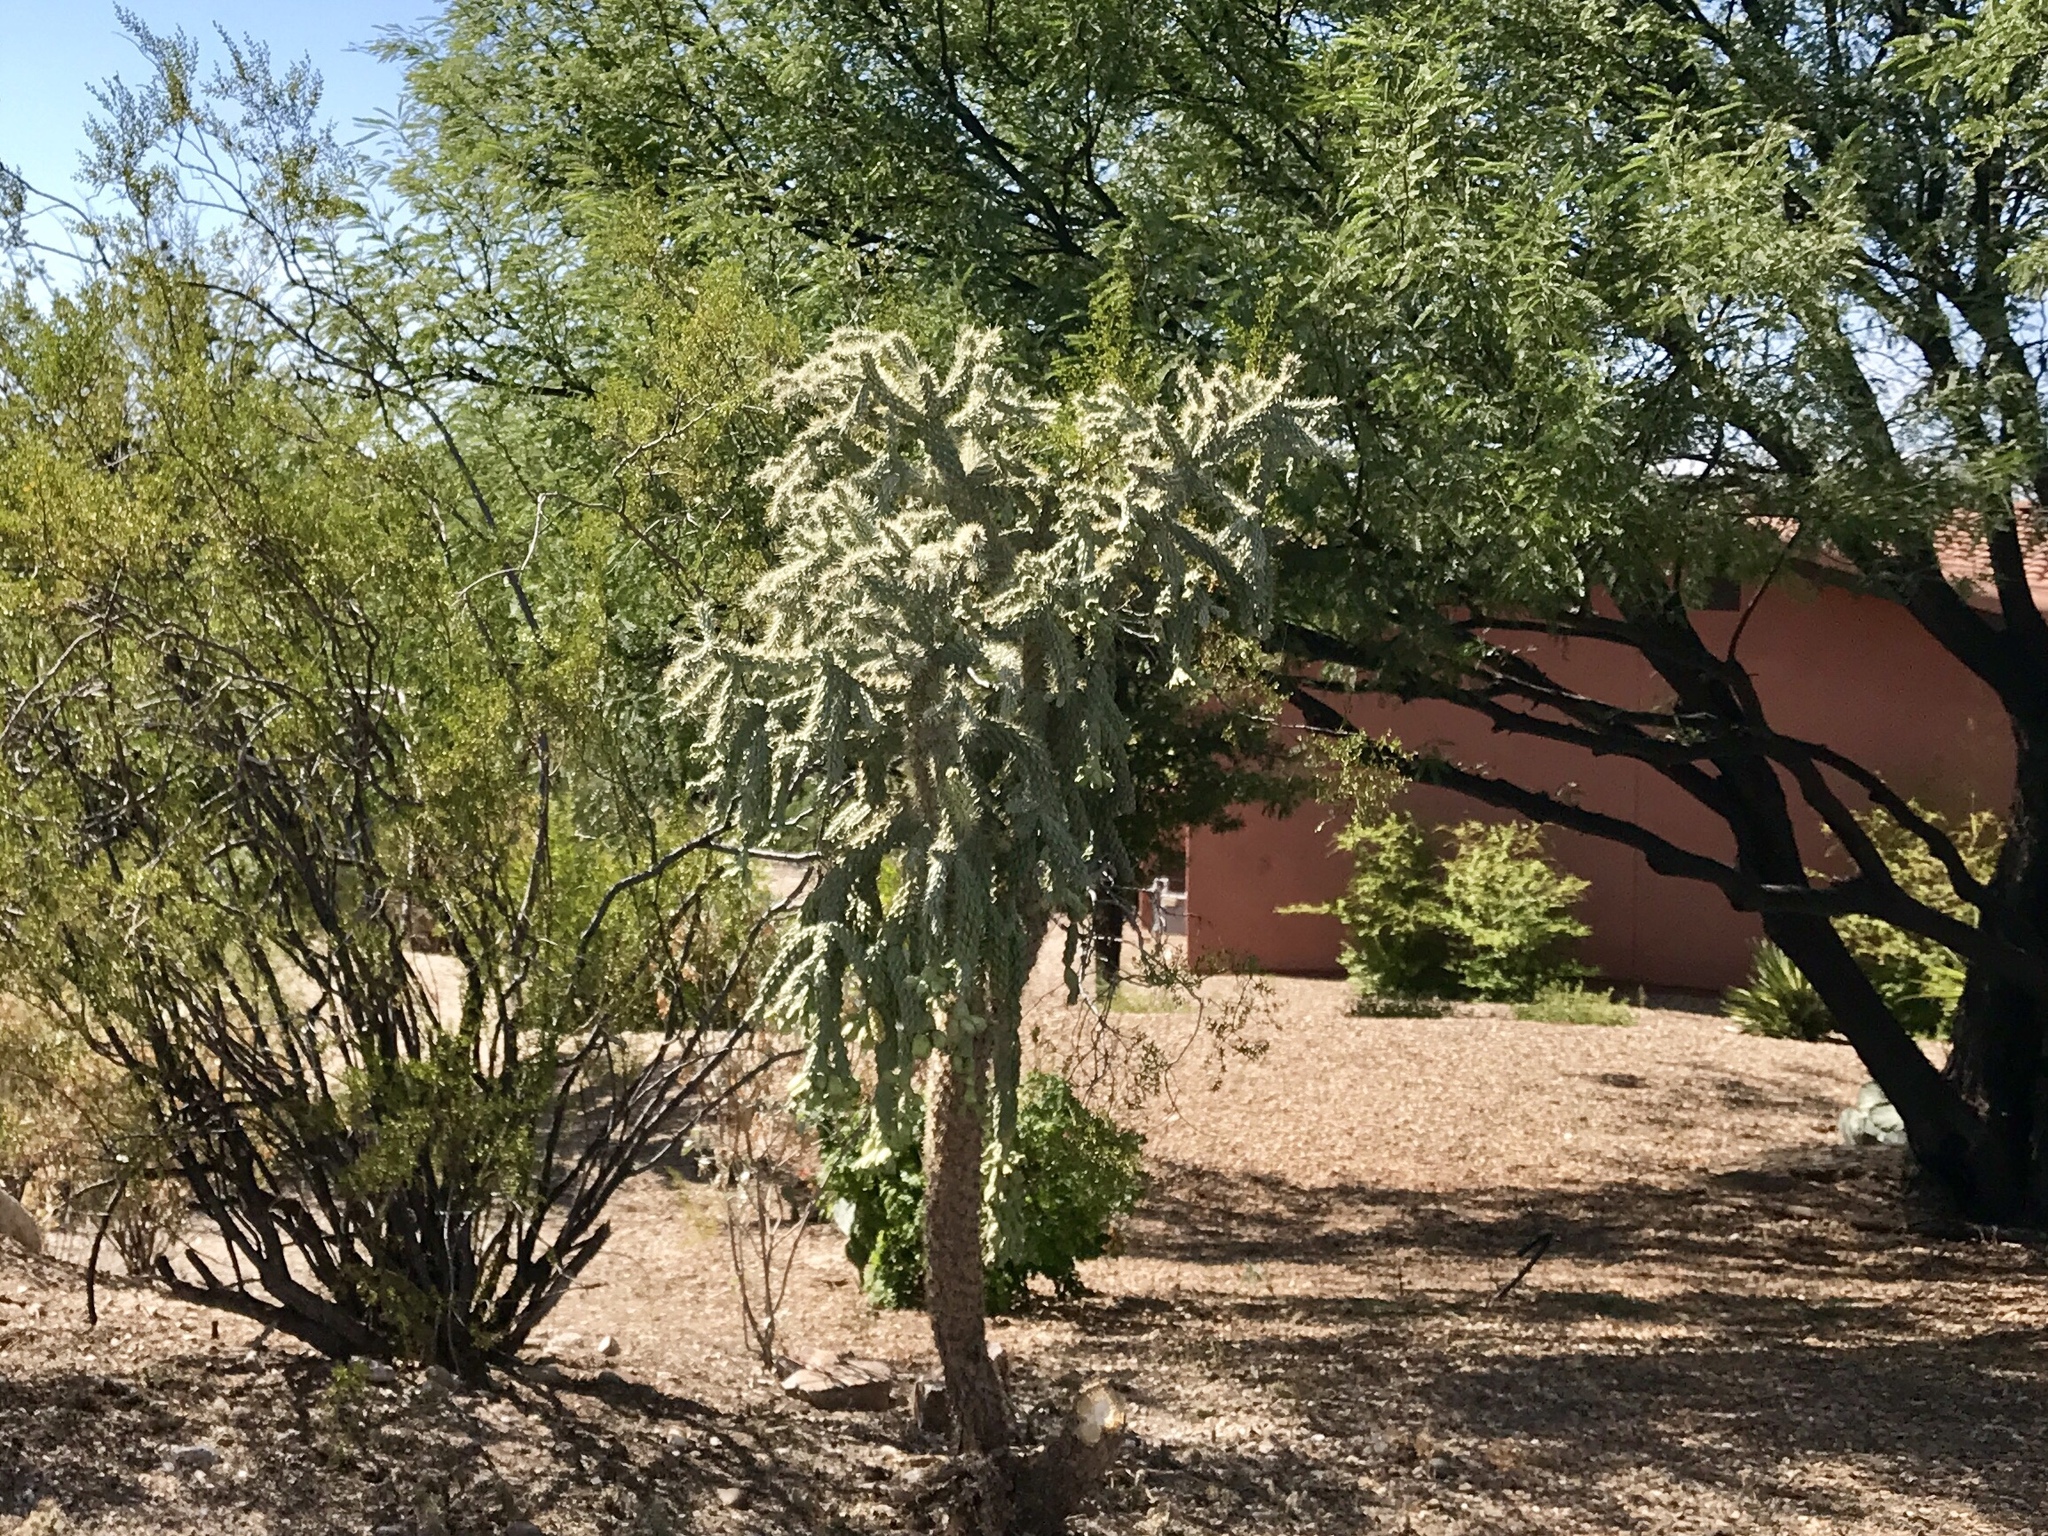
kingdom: Plantae
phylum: Tracheophyta
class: Magnoliopsida
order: Caryophyllales
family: Cactaceae
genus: Cylindropuntia
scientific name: Cylindropuntia fulgida
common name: Jumping cholla
